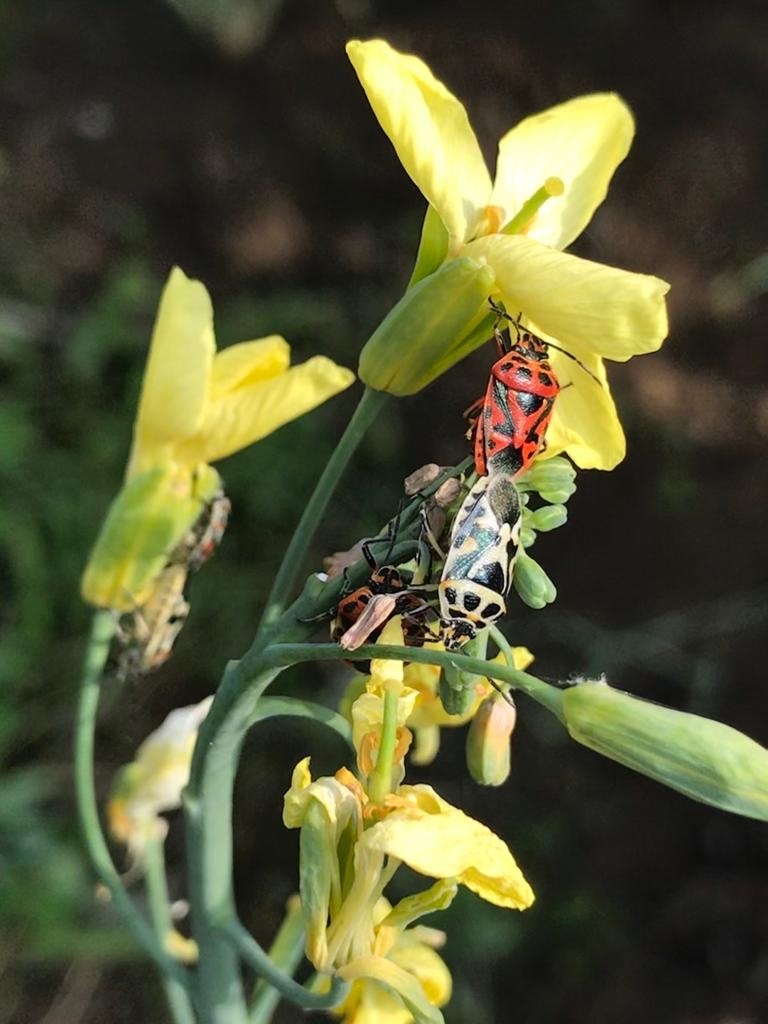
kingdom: Animalia
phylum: Arthropoda
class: Insecta
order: Hemiptera
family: Pentatomidae
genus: Eurydema
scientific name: Eurydema ornata
